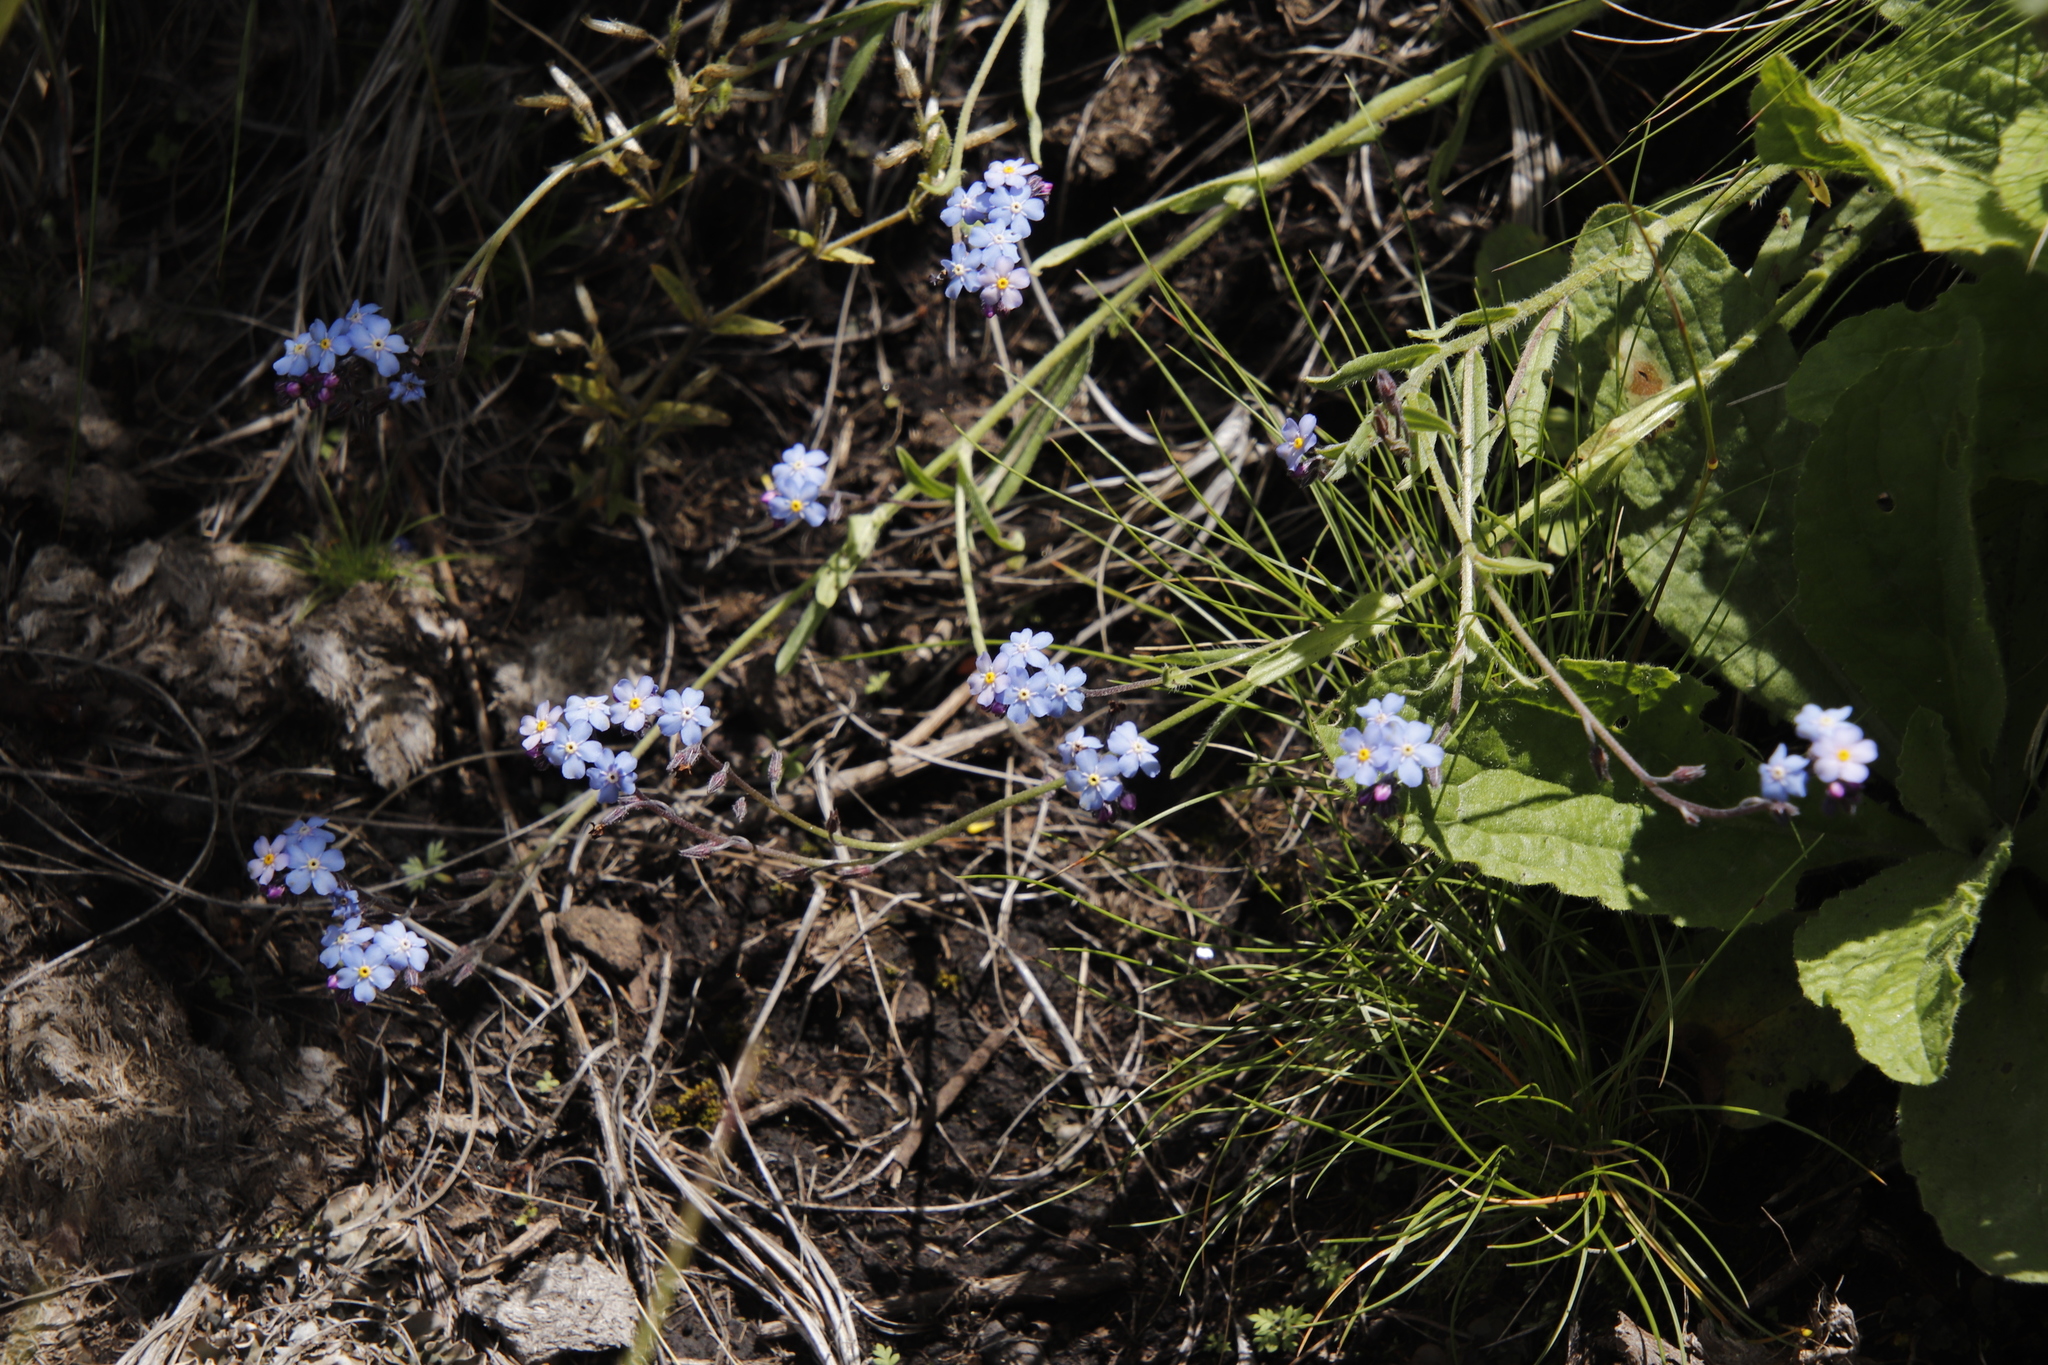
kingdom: Plantae
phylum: Tracheophyta
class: Magnoliopsida
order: Boraginales
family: Boraginaceae
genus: Myosotis
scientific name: Myosotis semiamplexicaulis
